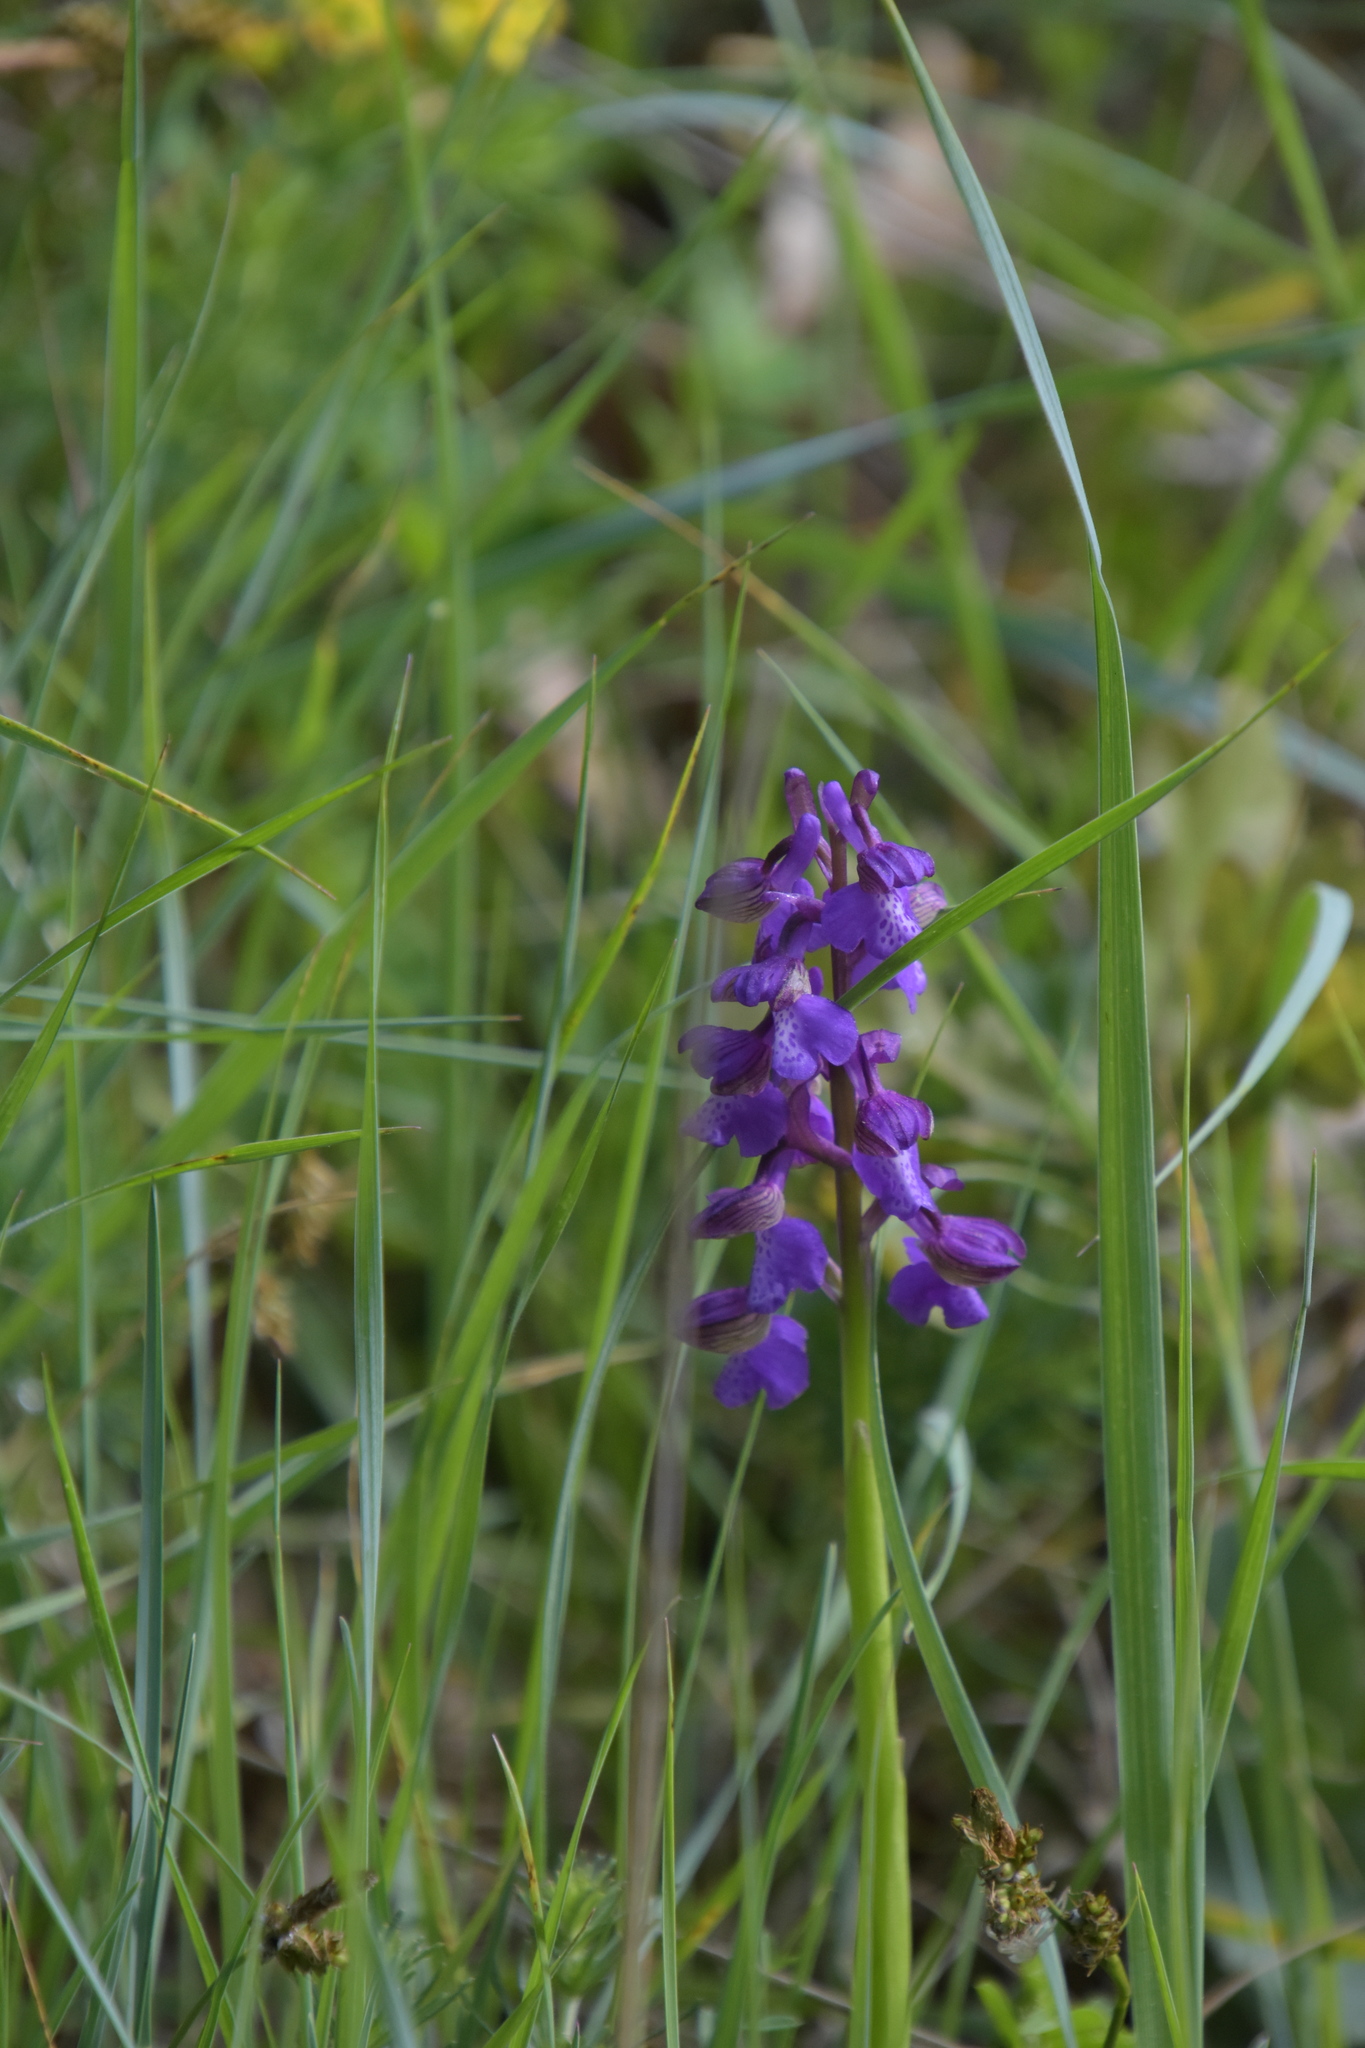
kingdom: Plantae
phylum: Tracheophyta
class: Liliopsida
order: Asparagales
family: Orchidaceae
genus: Anacamptis
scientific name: Anacamptis morio
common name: Green-winged orchid
